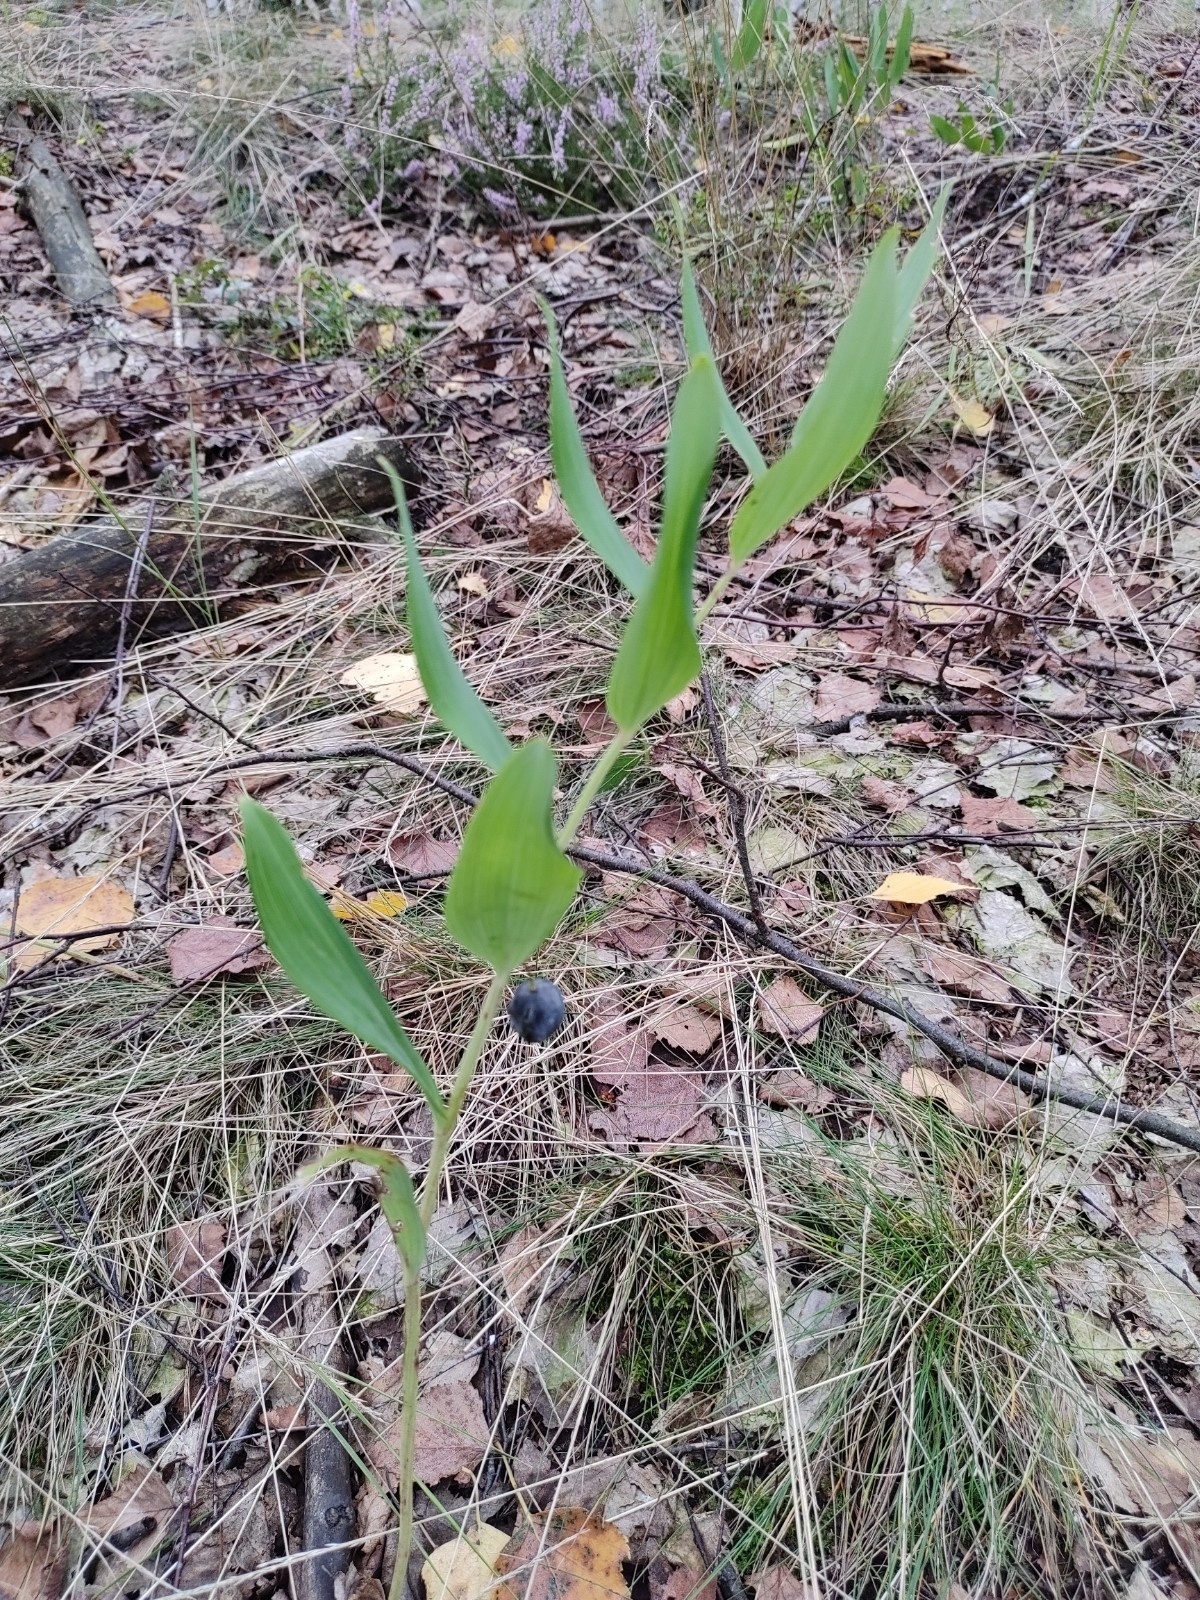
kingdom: Plantae
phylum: Tracheophyta
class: Liliopsida
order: Asparagales
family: Asparagaceae
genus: Polygonatum
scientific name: Polygonatum odoratum
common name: Angular solomon's-seal
